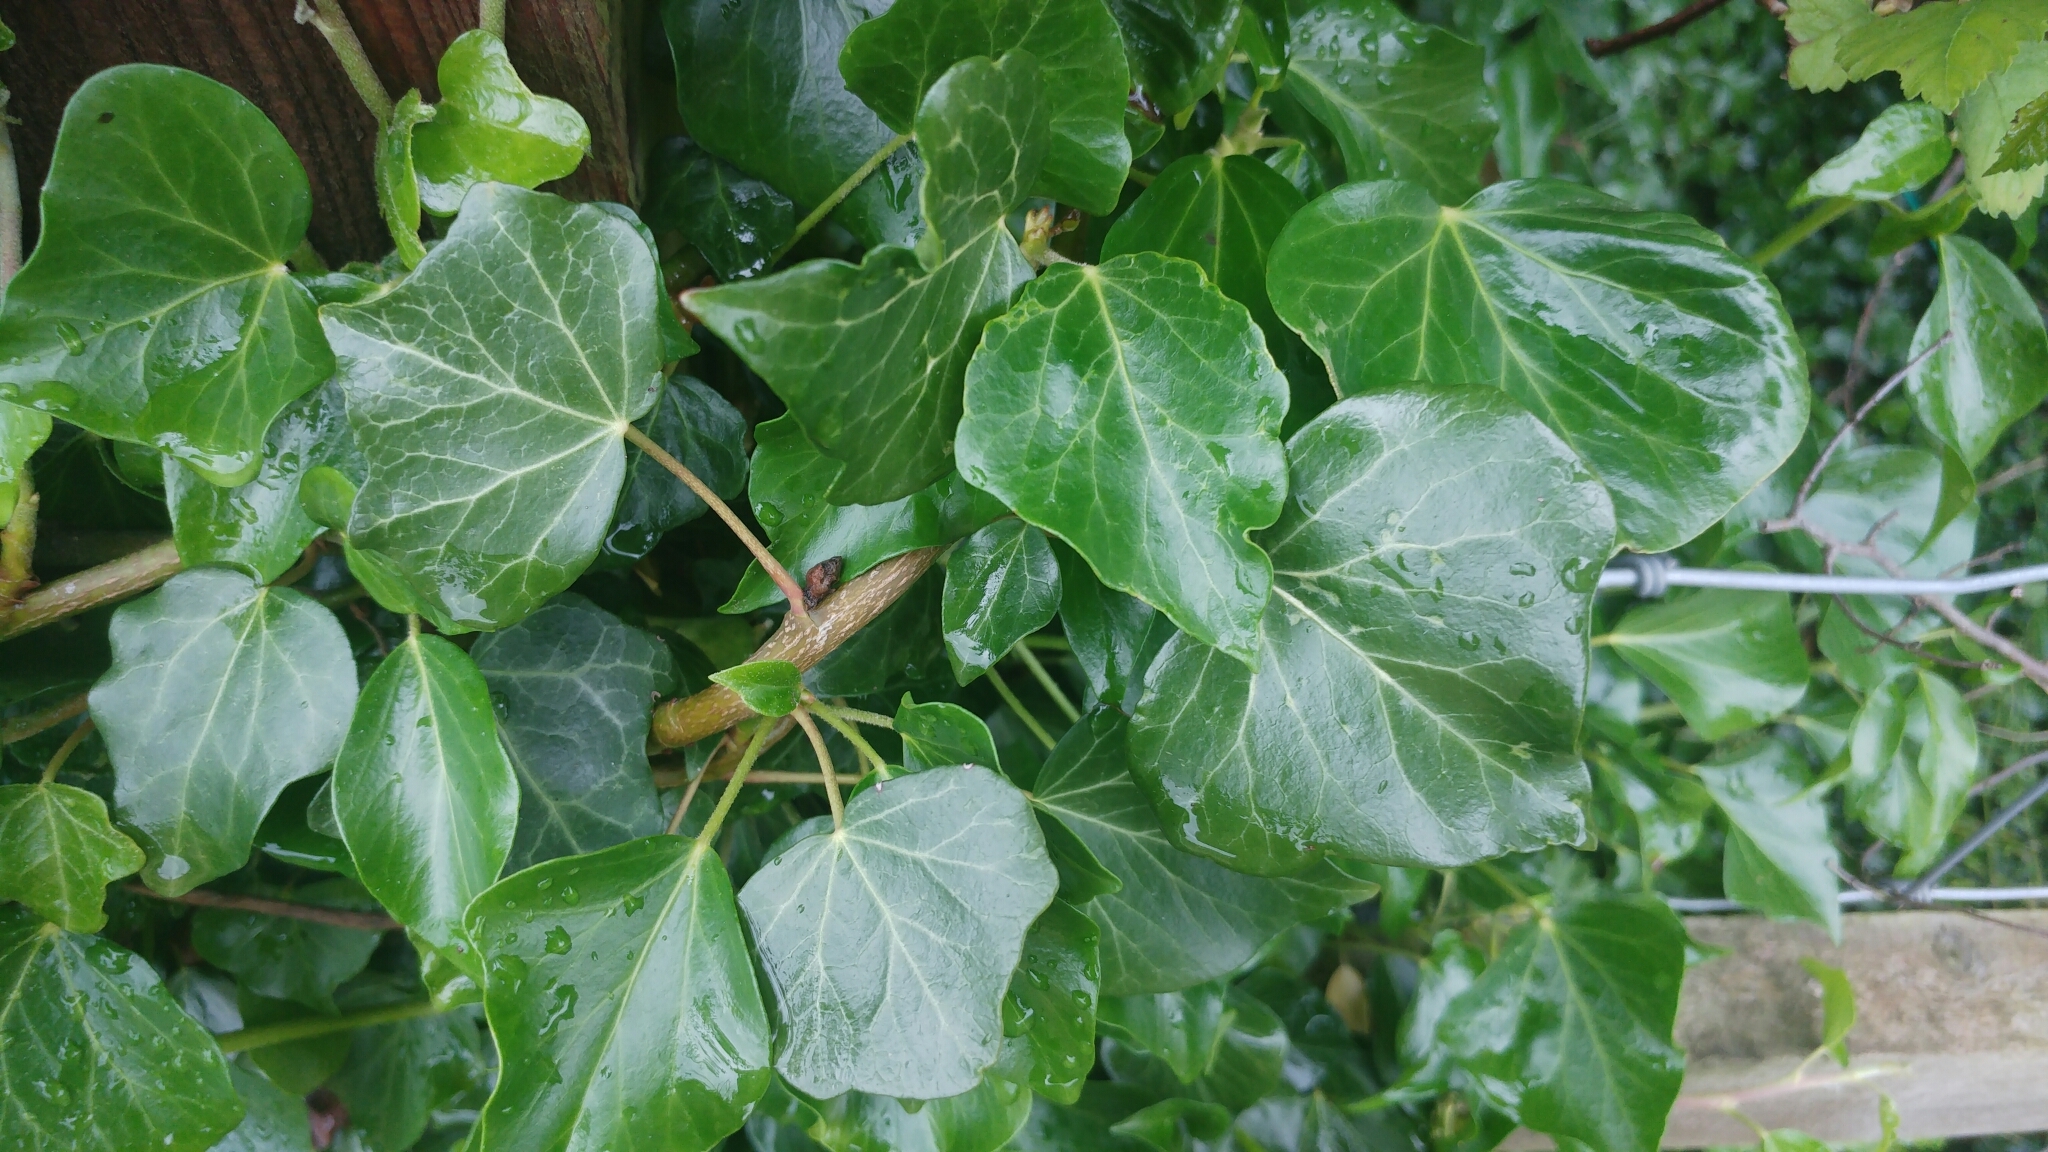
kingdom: Plantae
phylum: Tracheophyta
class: Magnoliopsida
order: Apiales
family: Araliaceae
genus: Hedera
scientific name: Hedera helix
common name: Ivy
